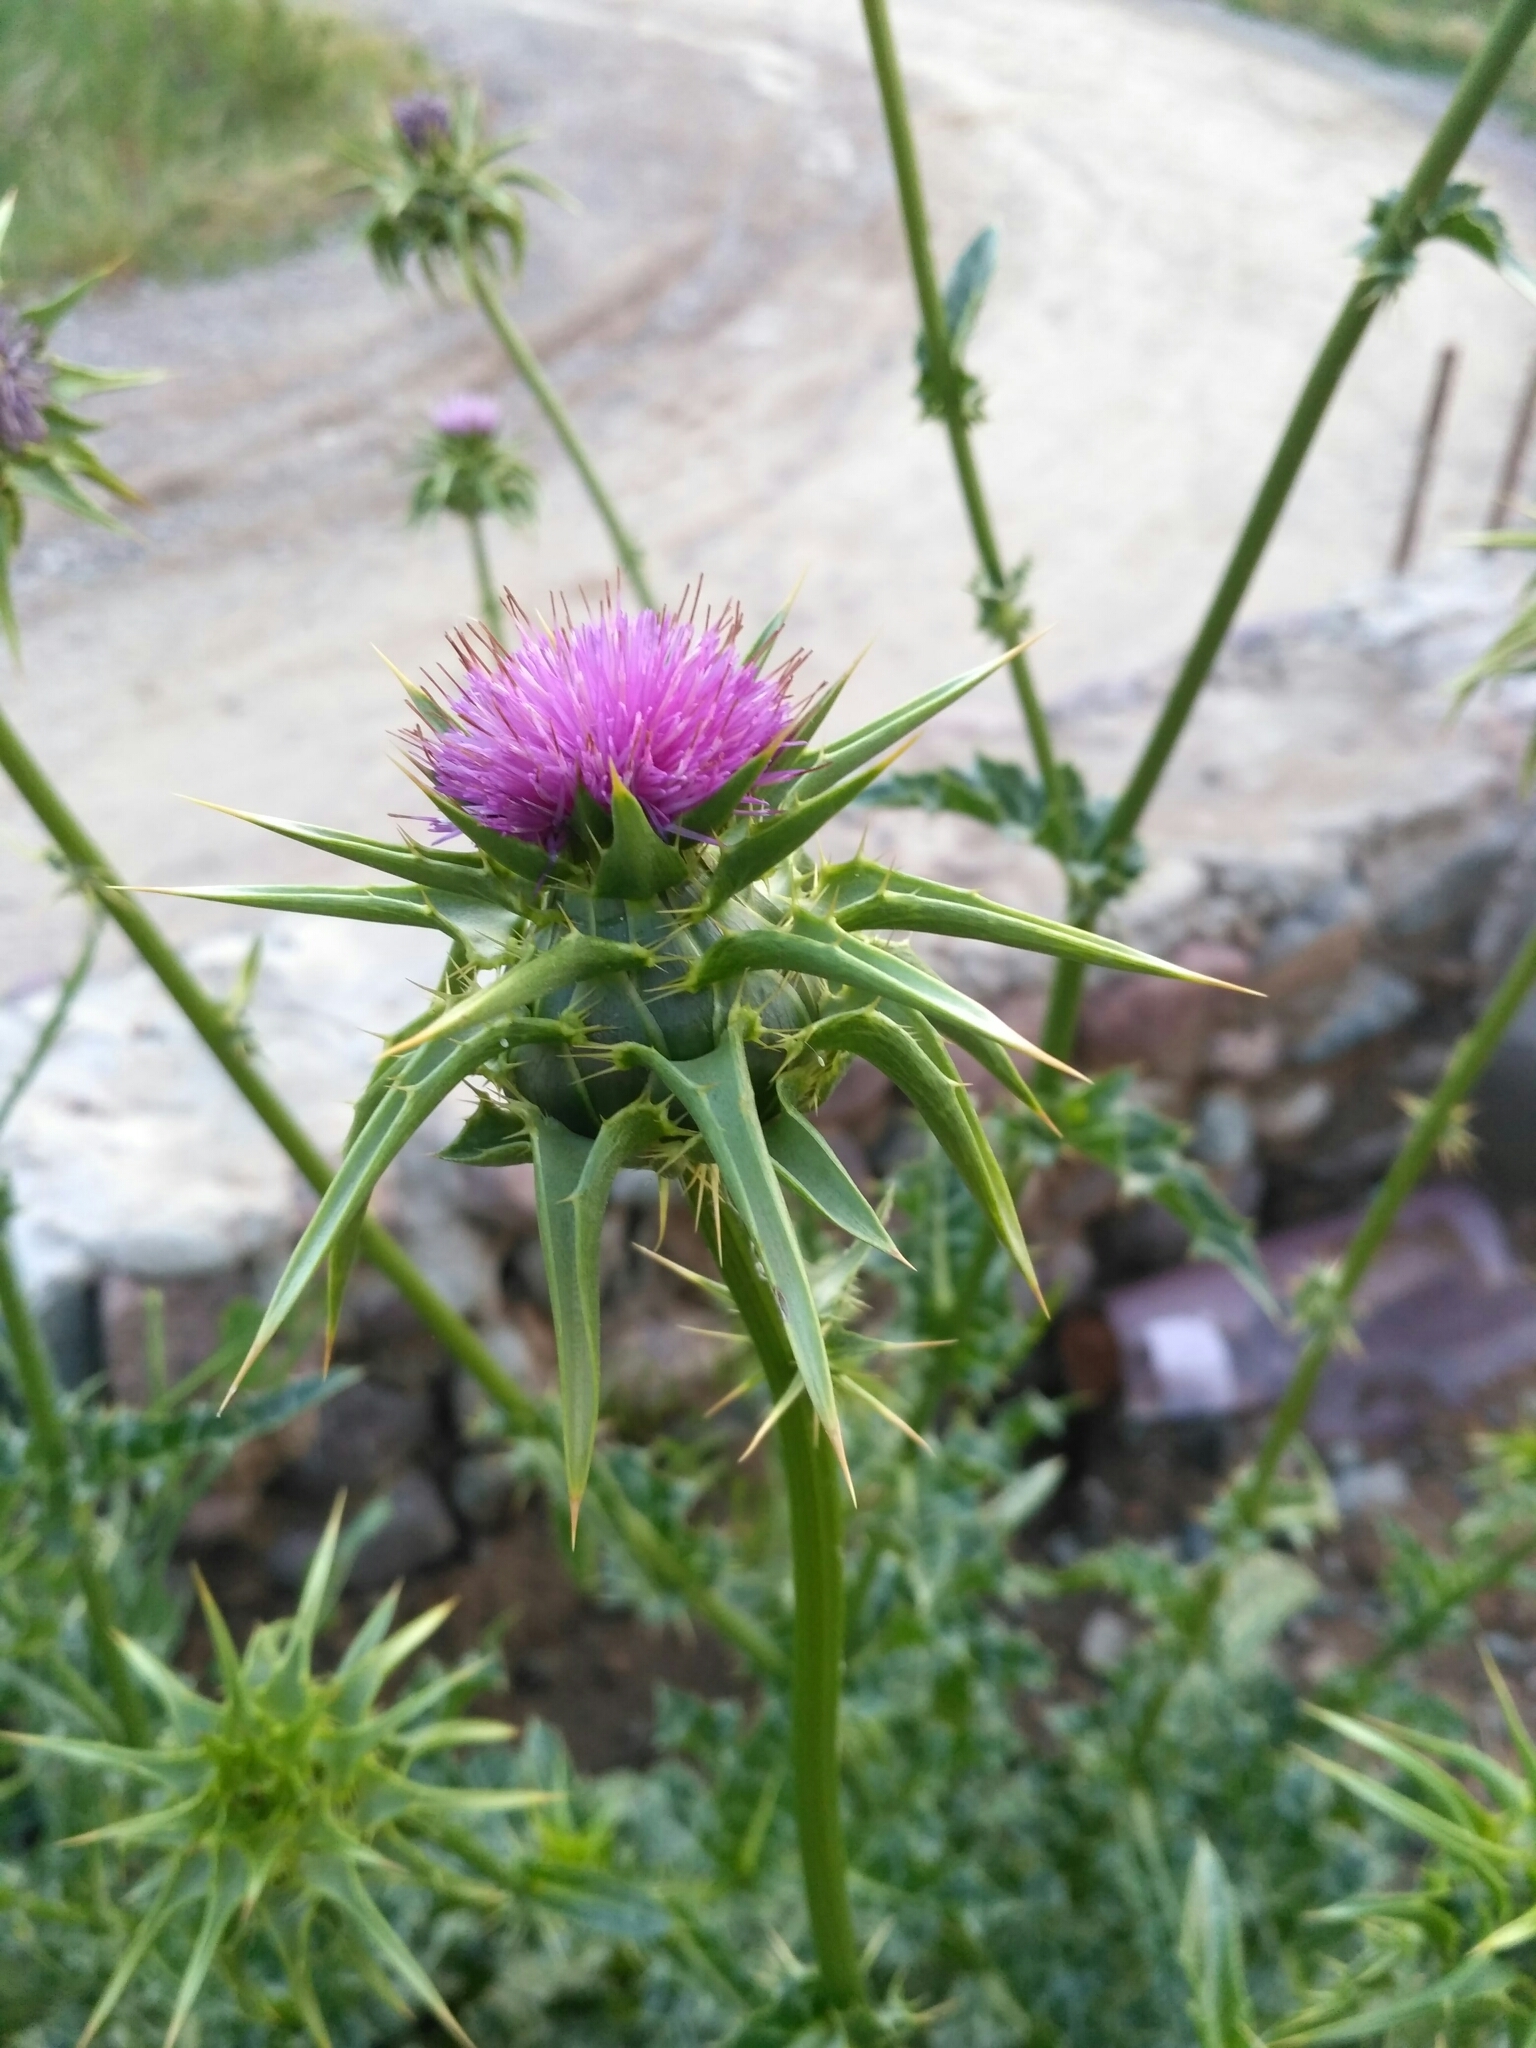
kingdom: Plantae
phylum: Tracheophyta
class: Magnoliopsida
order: Asterales
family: Asteraceae
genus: Silybum
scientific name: Silybum marianum
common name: Milk thistle
